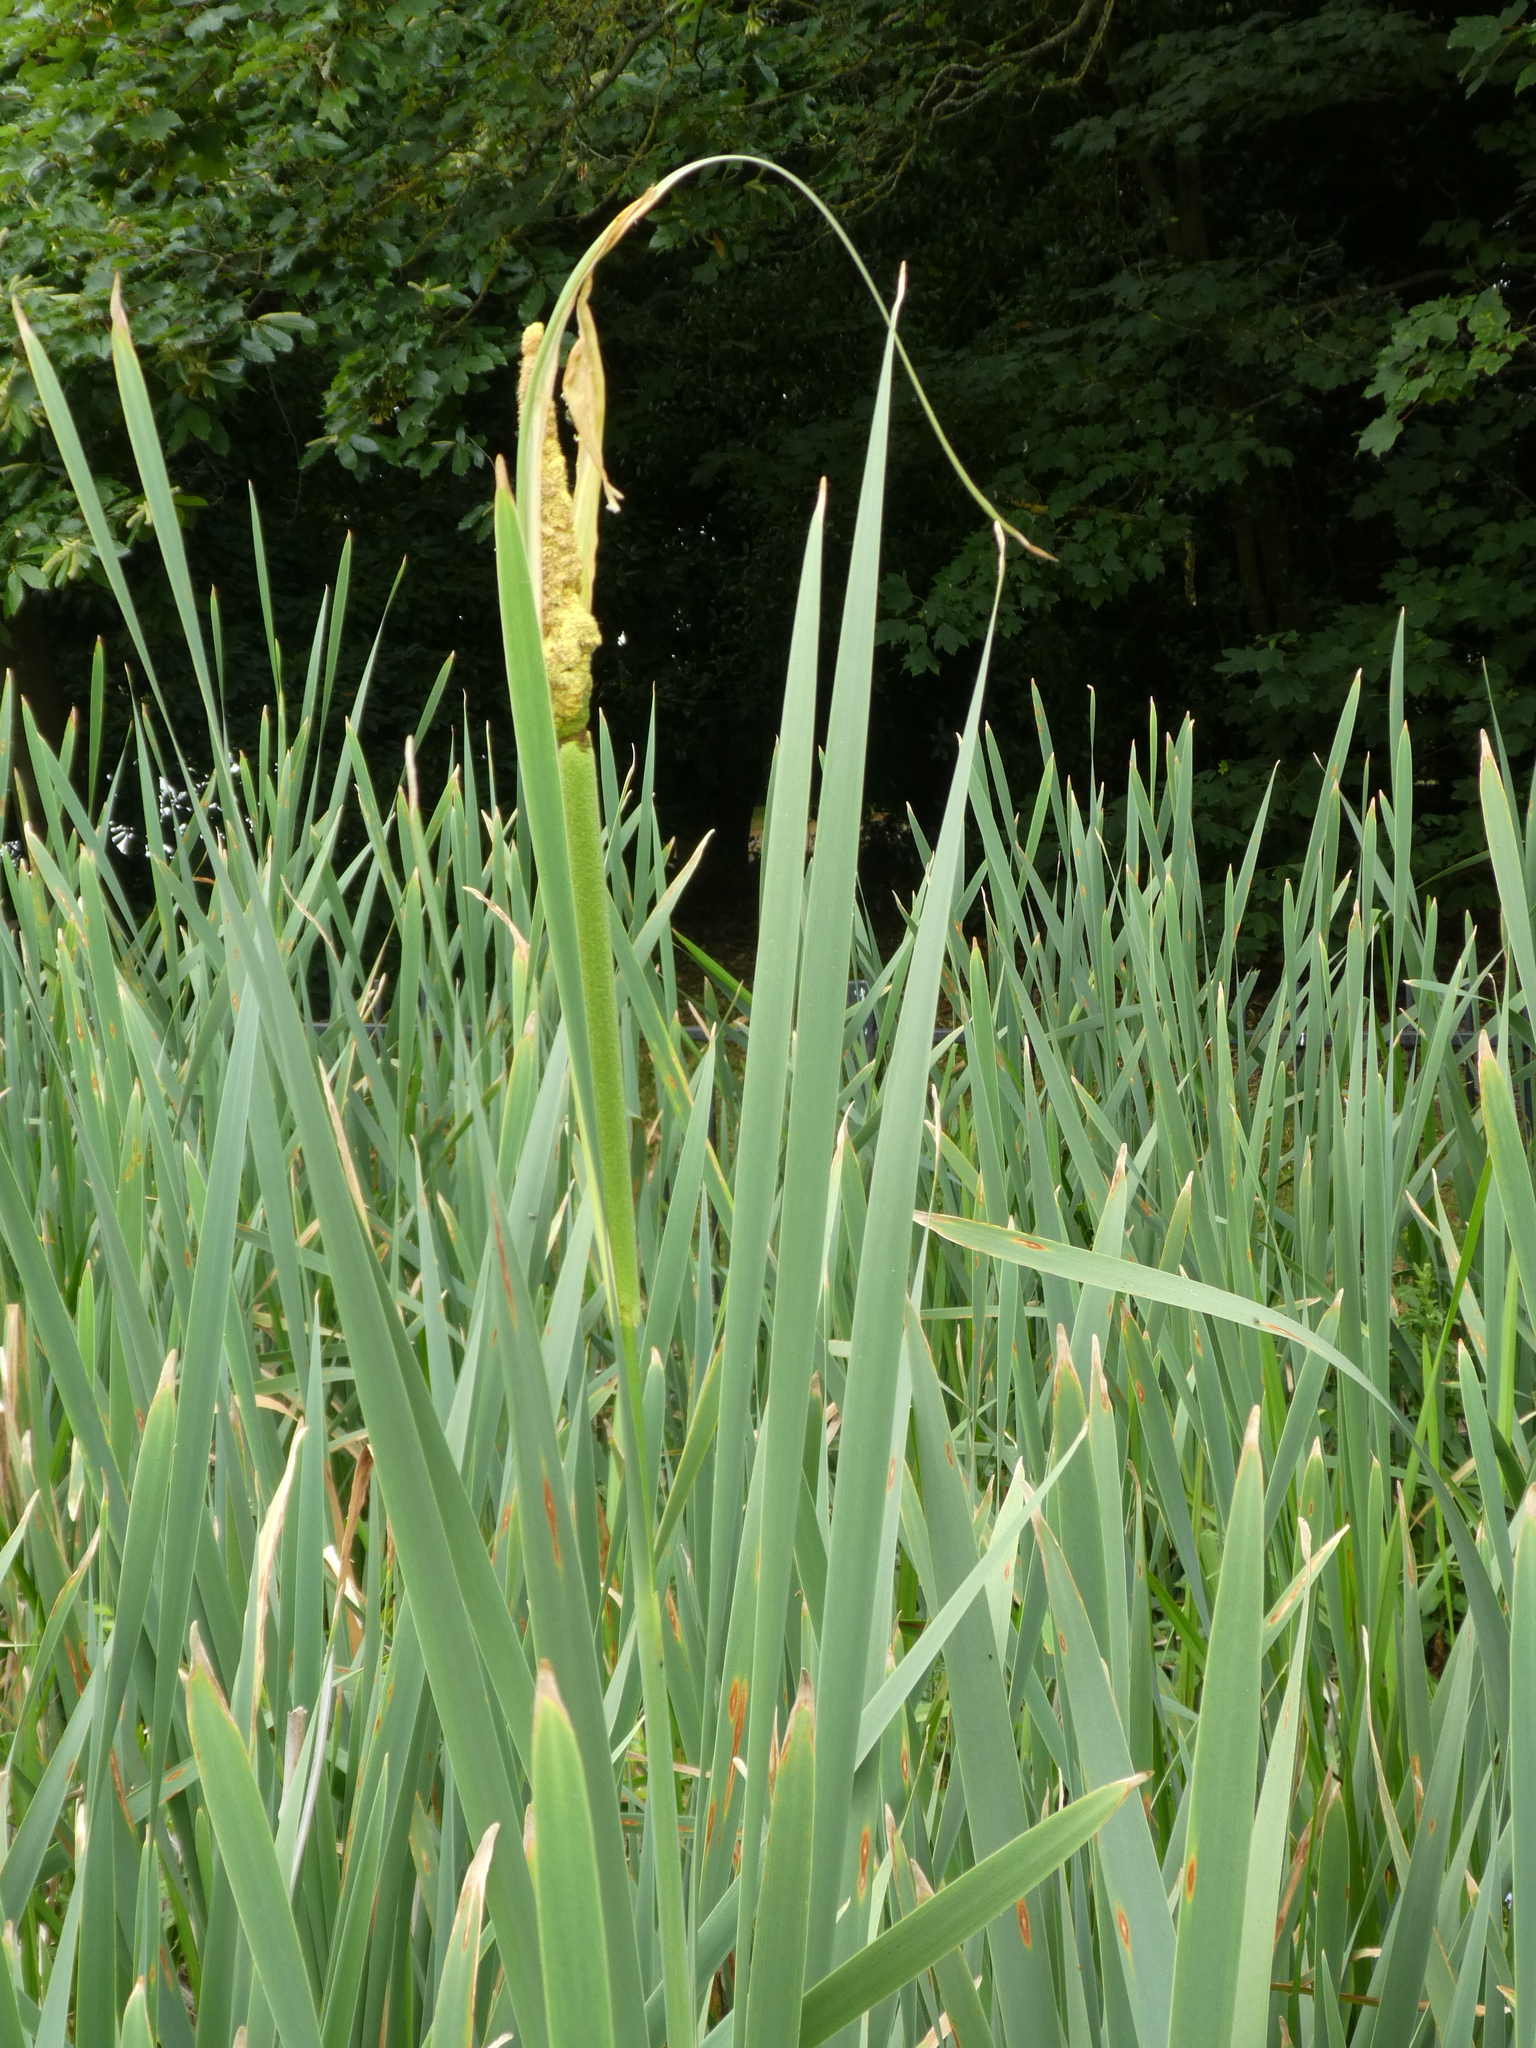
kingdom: Plantae
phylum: Tracheophyta
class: Liliopsida
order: Poales
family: Typhaceae
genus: Typha
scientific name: Typha latifolia
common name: Broadleaf cattail
